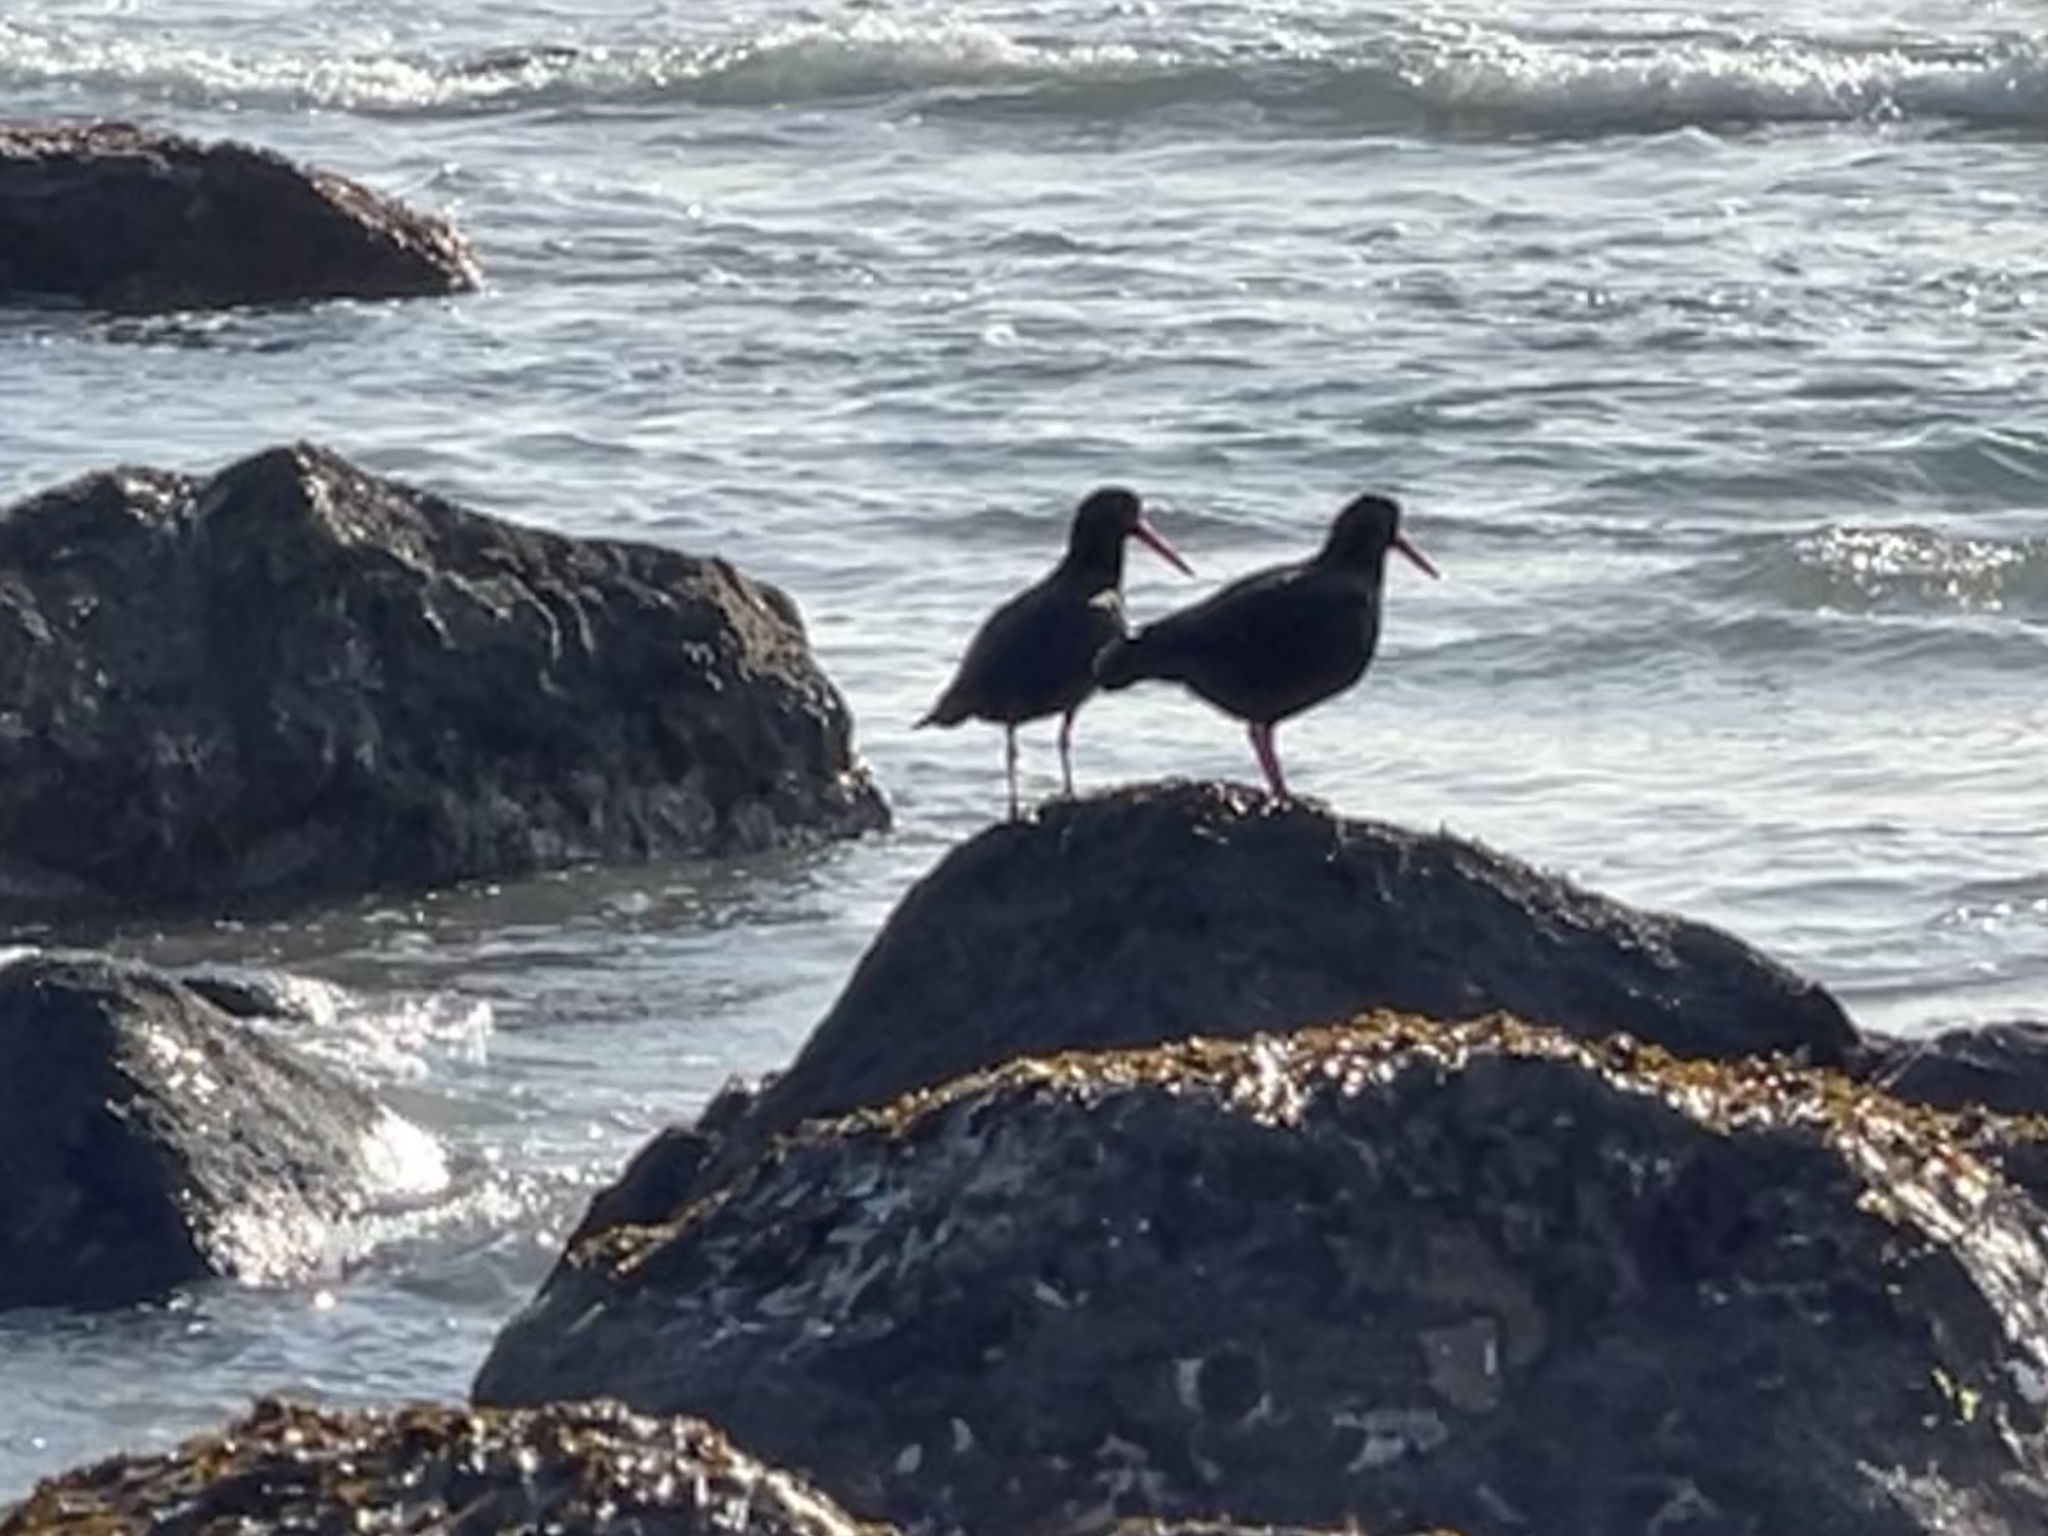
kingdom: Animalia
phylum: Chordata
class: Aves
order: Charadriiformes
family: Haematopodidae
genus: Haematopus
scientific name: Haematopus unicolor
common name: Variable oystercatcher
